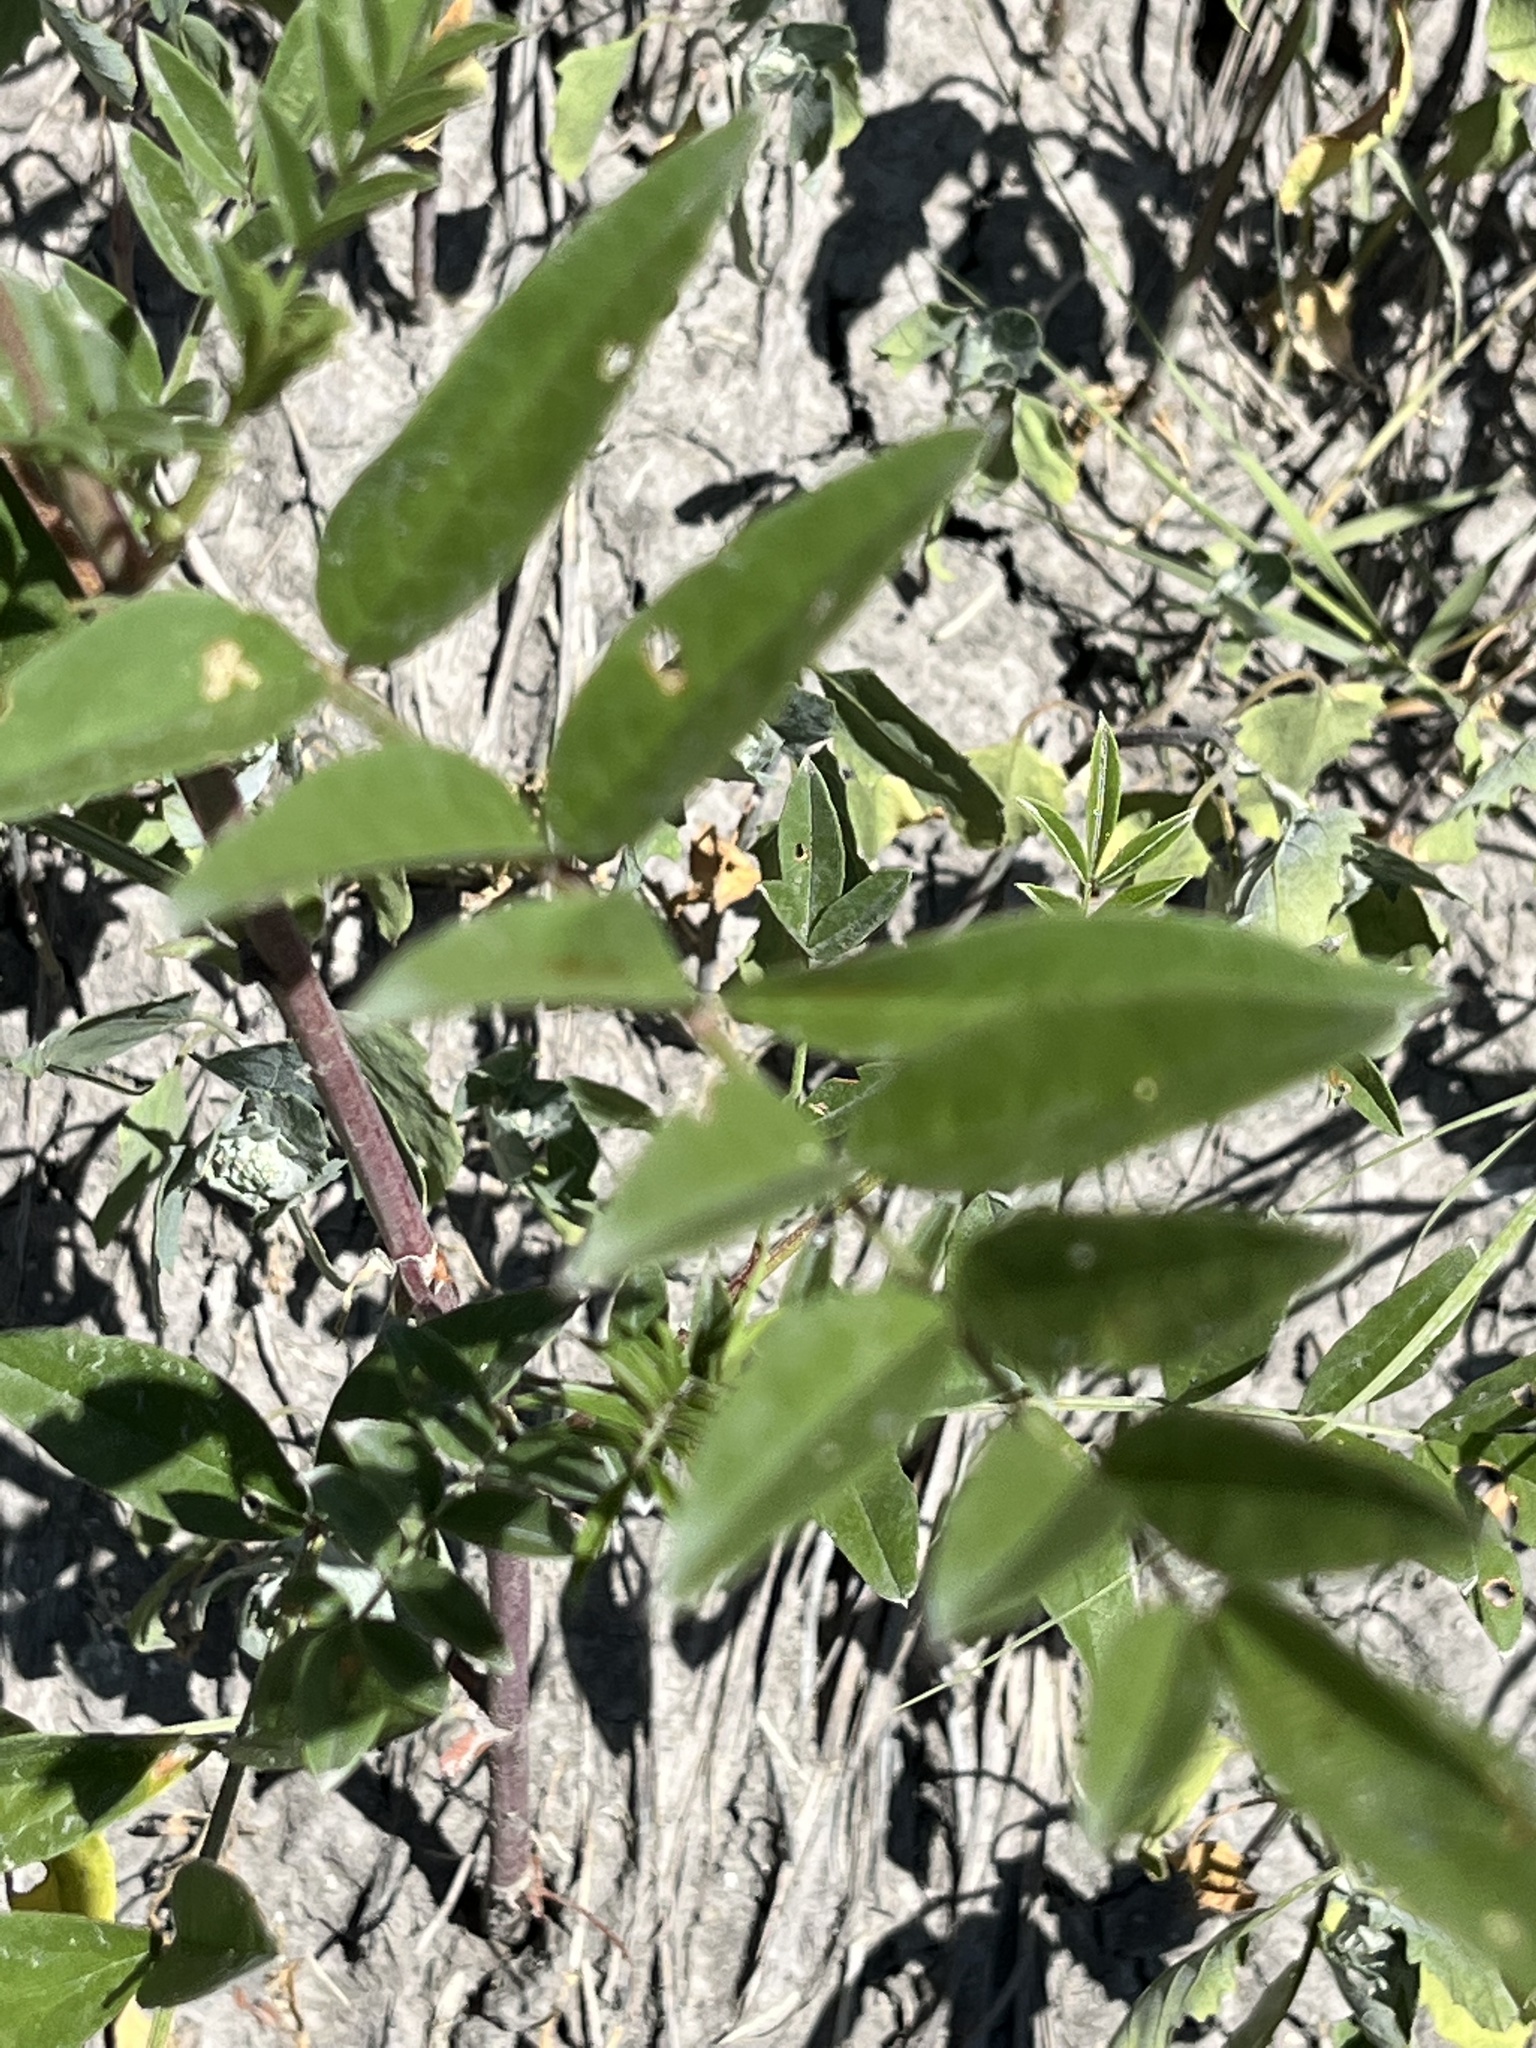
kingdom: Plantae
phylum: Tracheophyta
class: Magnoliopsida
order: Fabales
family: Fabaceae
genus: Glycyrrhiza
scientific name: Glycyrrhiza lepidota
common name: American liquorice
